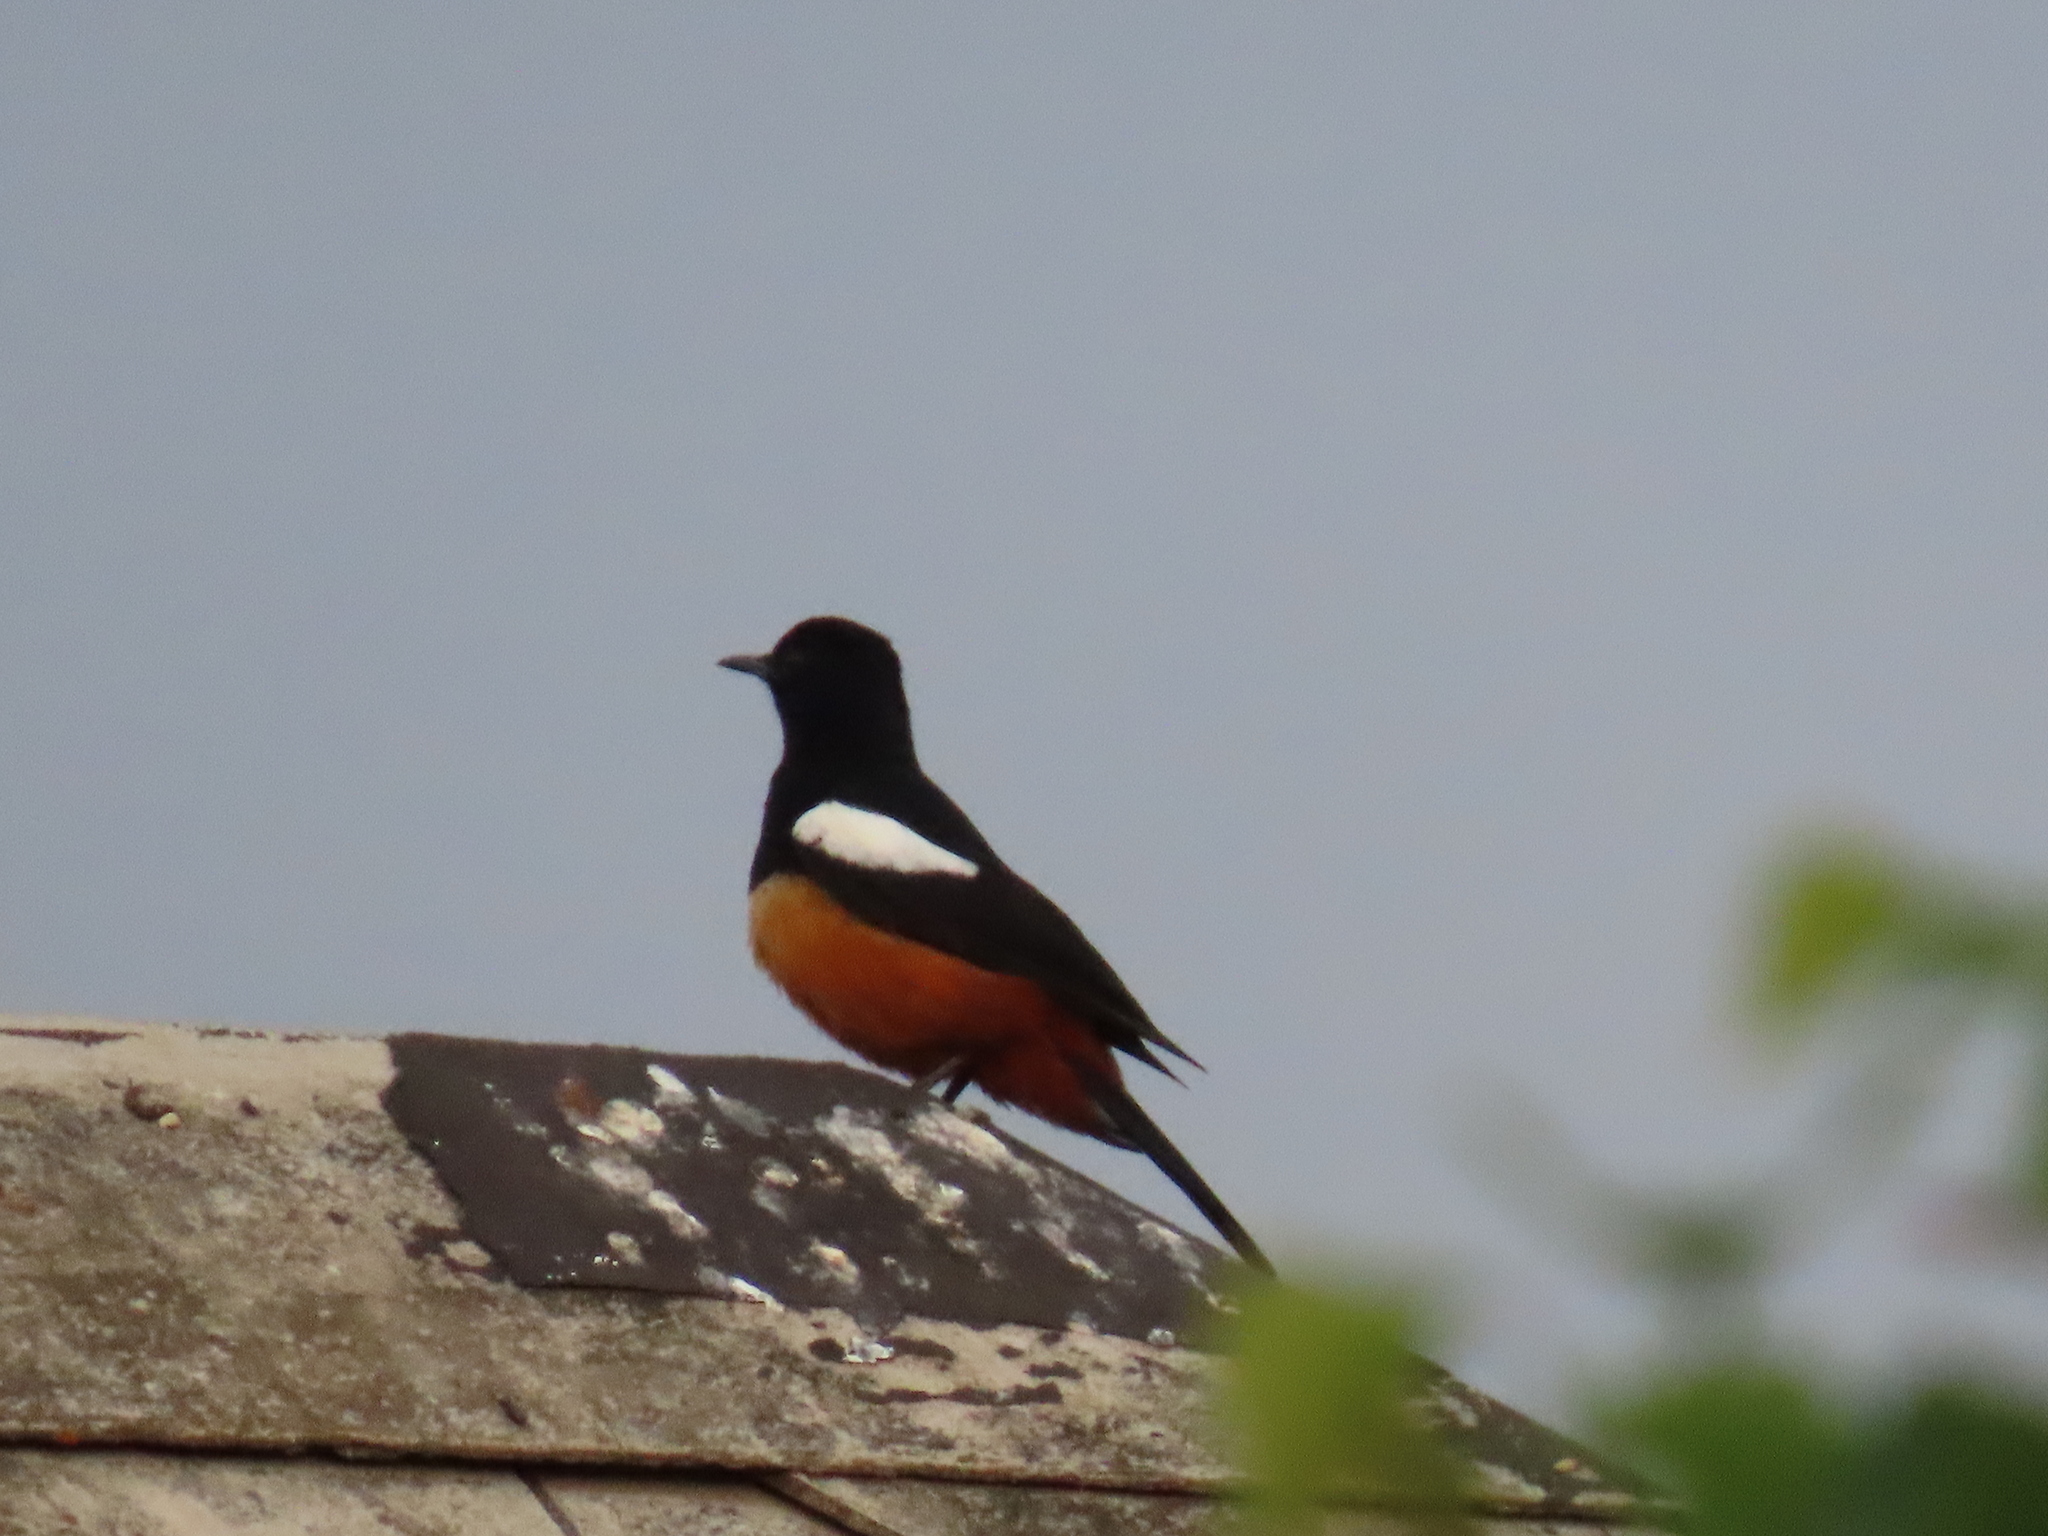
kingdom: Animalia
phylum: Chordata
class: Aves
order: Passeriformes
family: Muscicapidae
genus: Thamnolaea
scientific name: Thamnolaea cinnamomeiventris
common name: Mocking cliff chat
